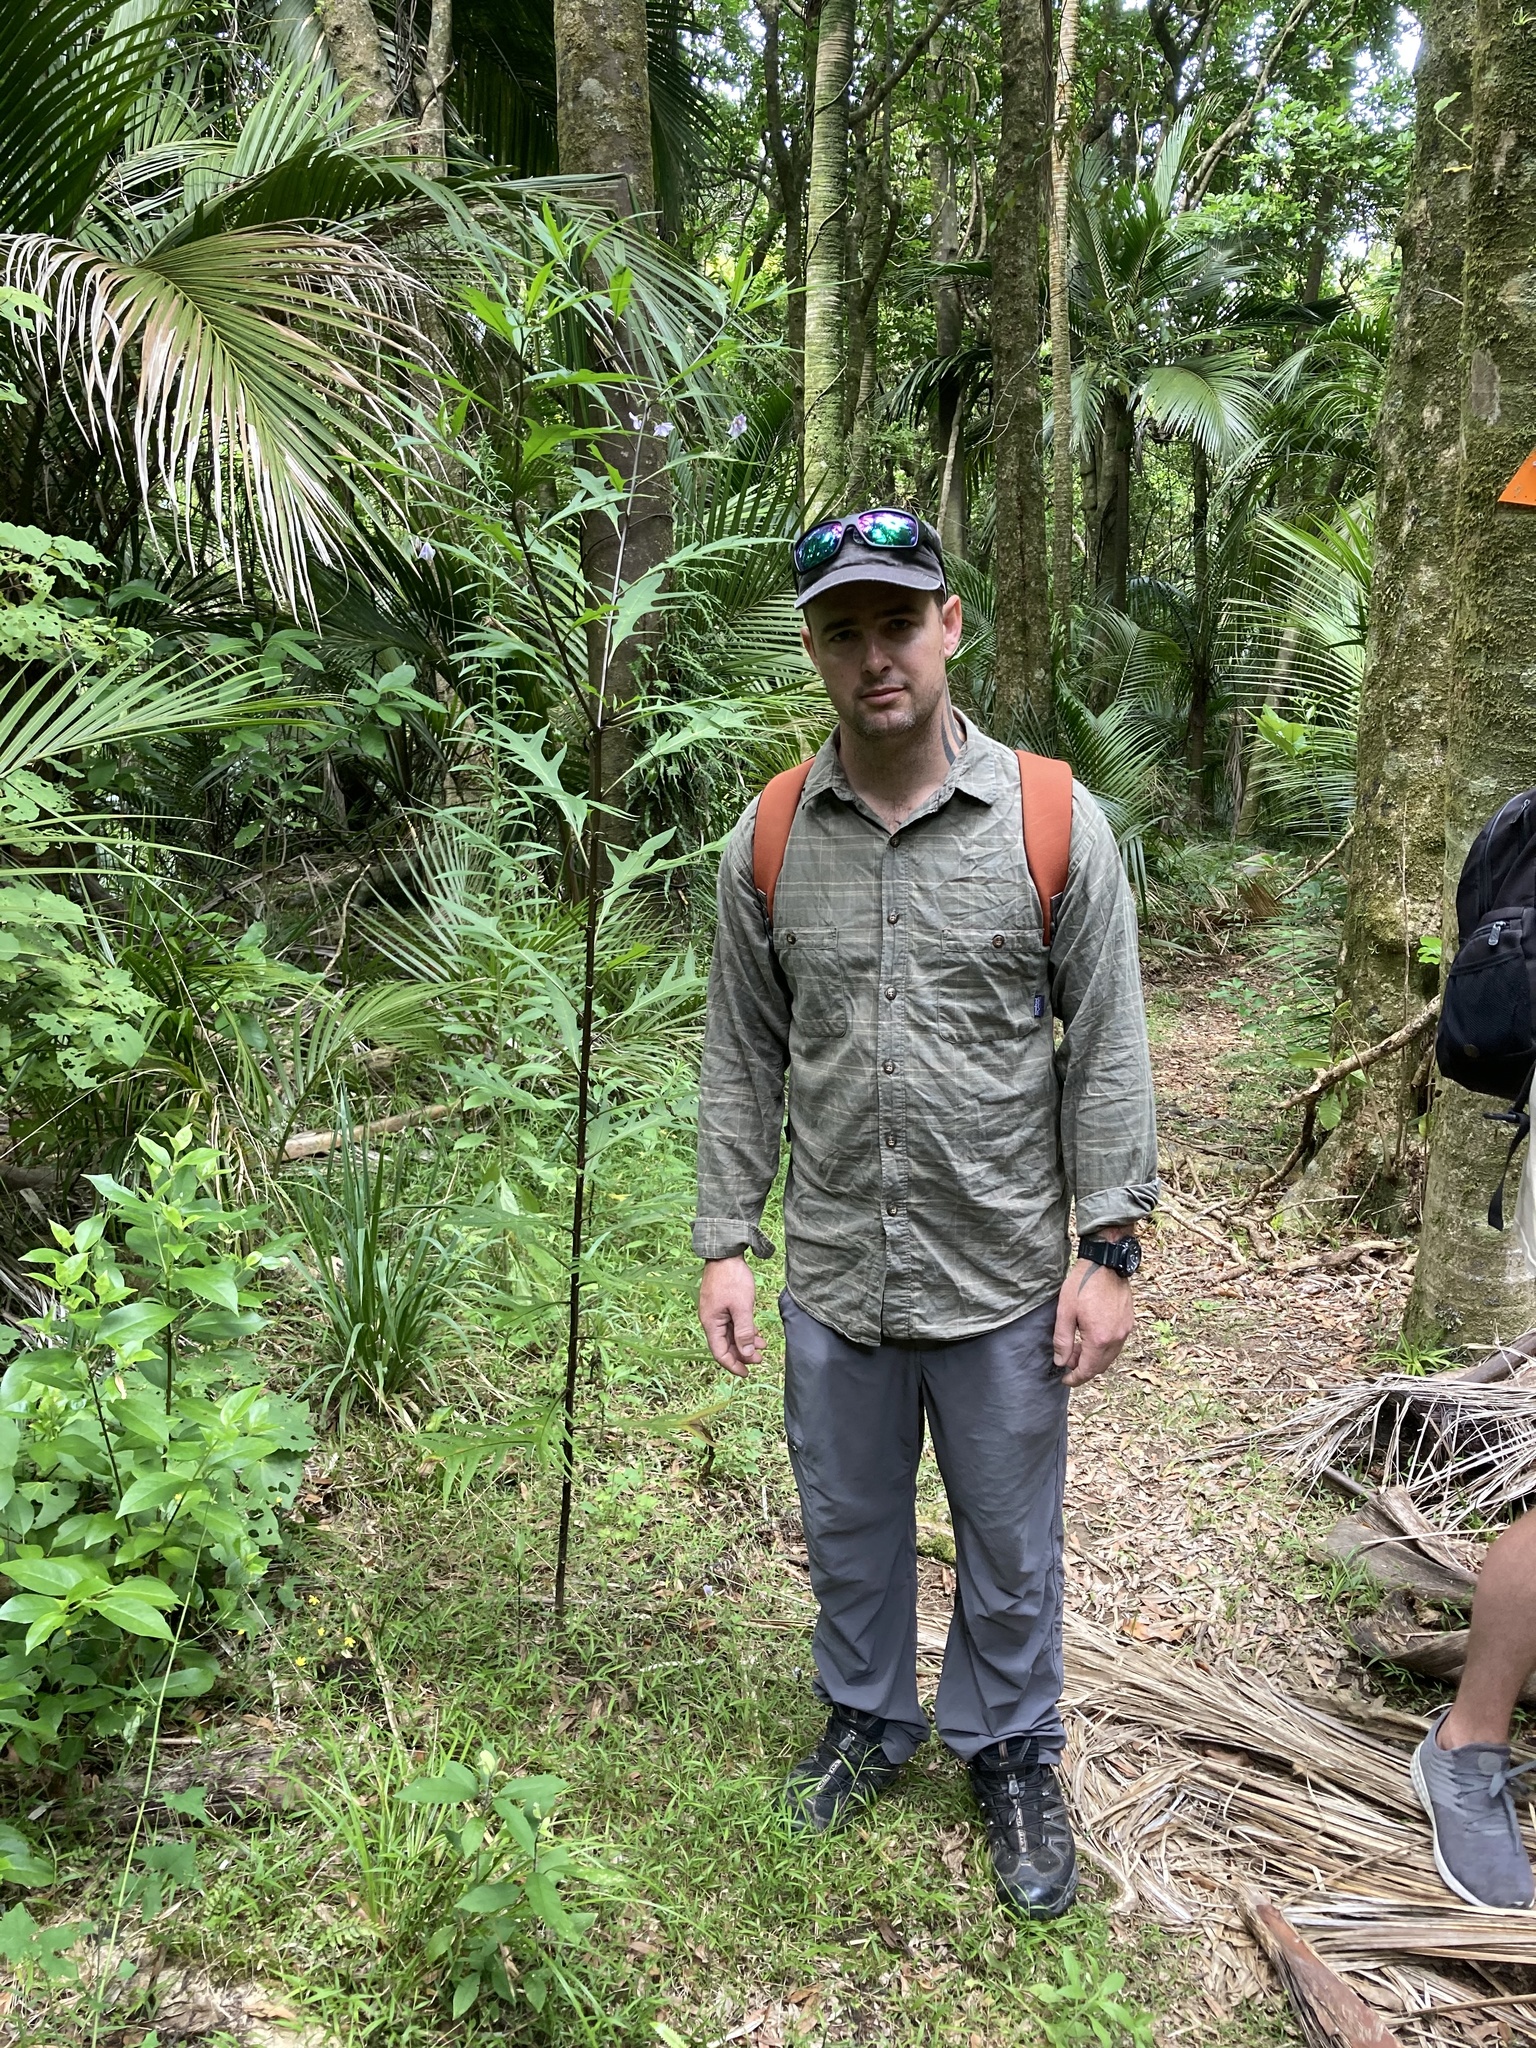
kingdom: Plantae
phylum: Tracheophyta
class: Magnoliopsida
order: Solanales
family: Solanaceae
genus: Solanum
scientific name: Solanum aviculare
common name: New zealand nightshade
